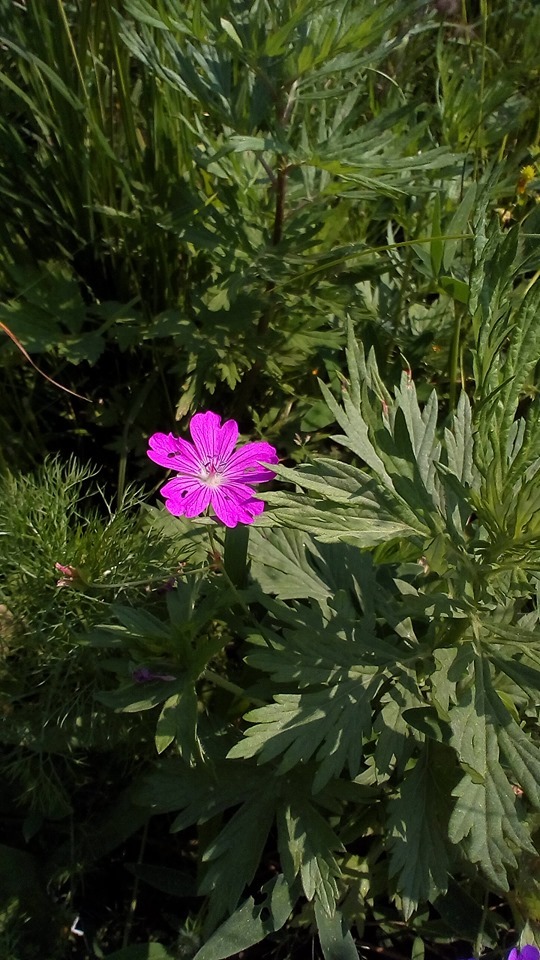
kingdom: Plantae
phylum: Tracheophyta
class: Magnoliopsida
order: Geraniales
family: Geraniaceae
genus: Geranium
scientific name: Geranium palustre
